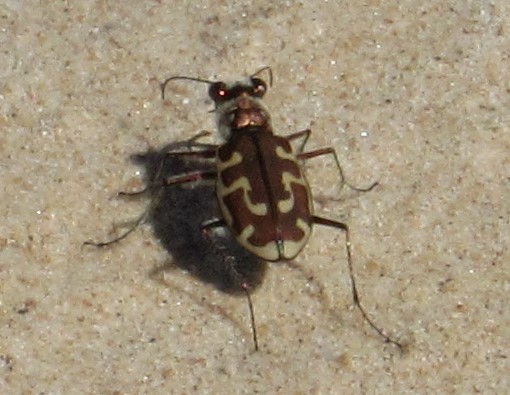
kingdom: Animalia
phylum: Arthropoda
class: Insecta
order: Coleoptera
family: Carabidae
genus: Cicindela
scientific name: Cicindela hirticollis
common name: Hairy-necked tiger beetle
